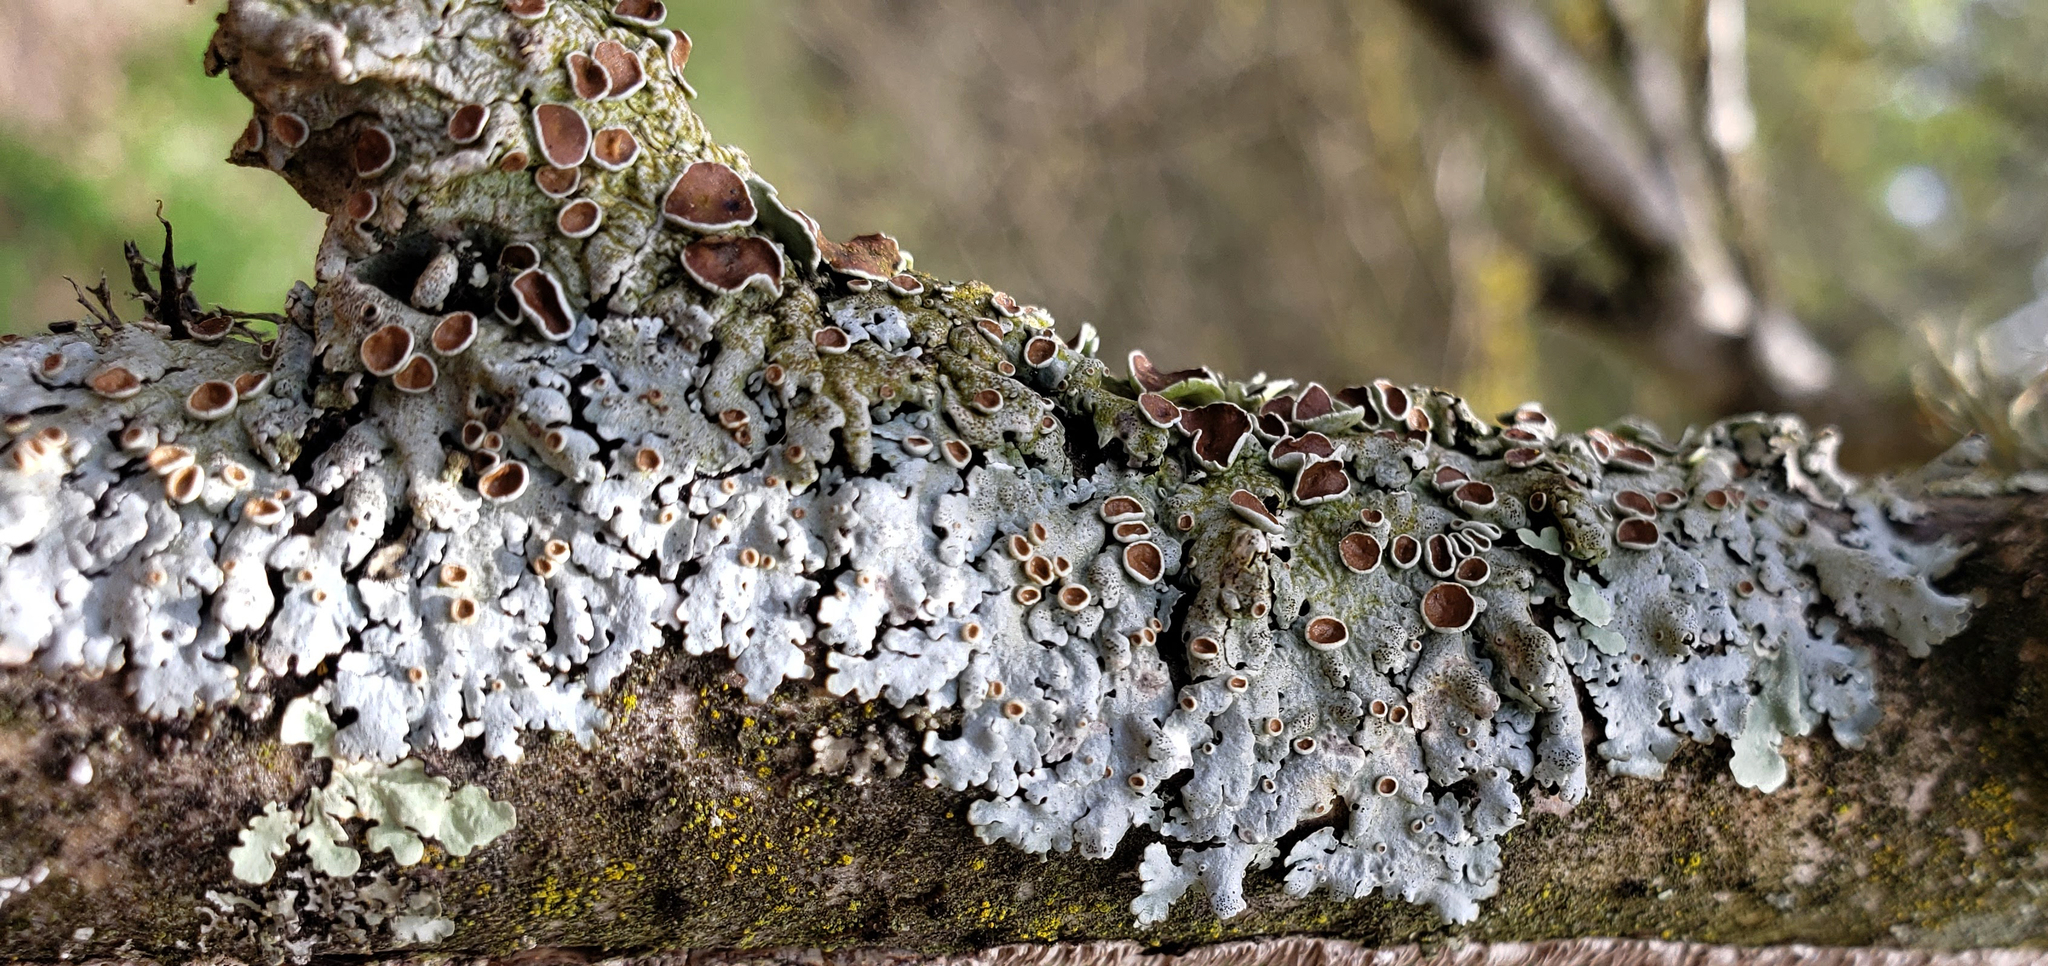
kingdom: Fungi
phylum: Ascomycota
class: Lecanoromycetes
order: Lecanorales
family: Parmeliaceae
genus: Myelochroa
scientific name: Myelochroa galbina
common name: Smooth axil-bristle lichen
